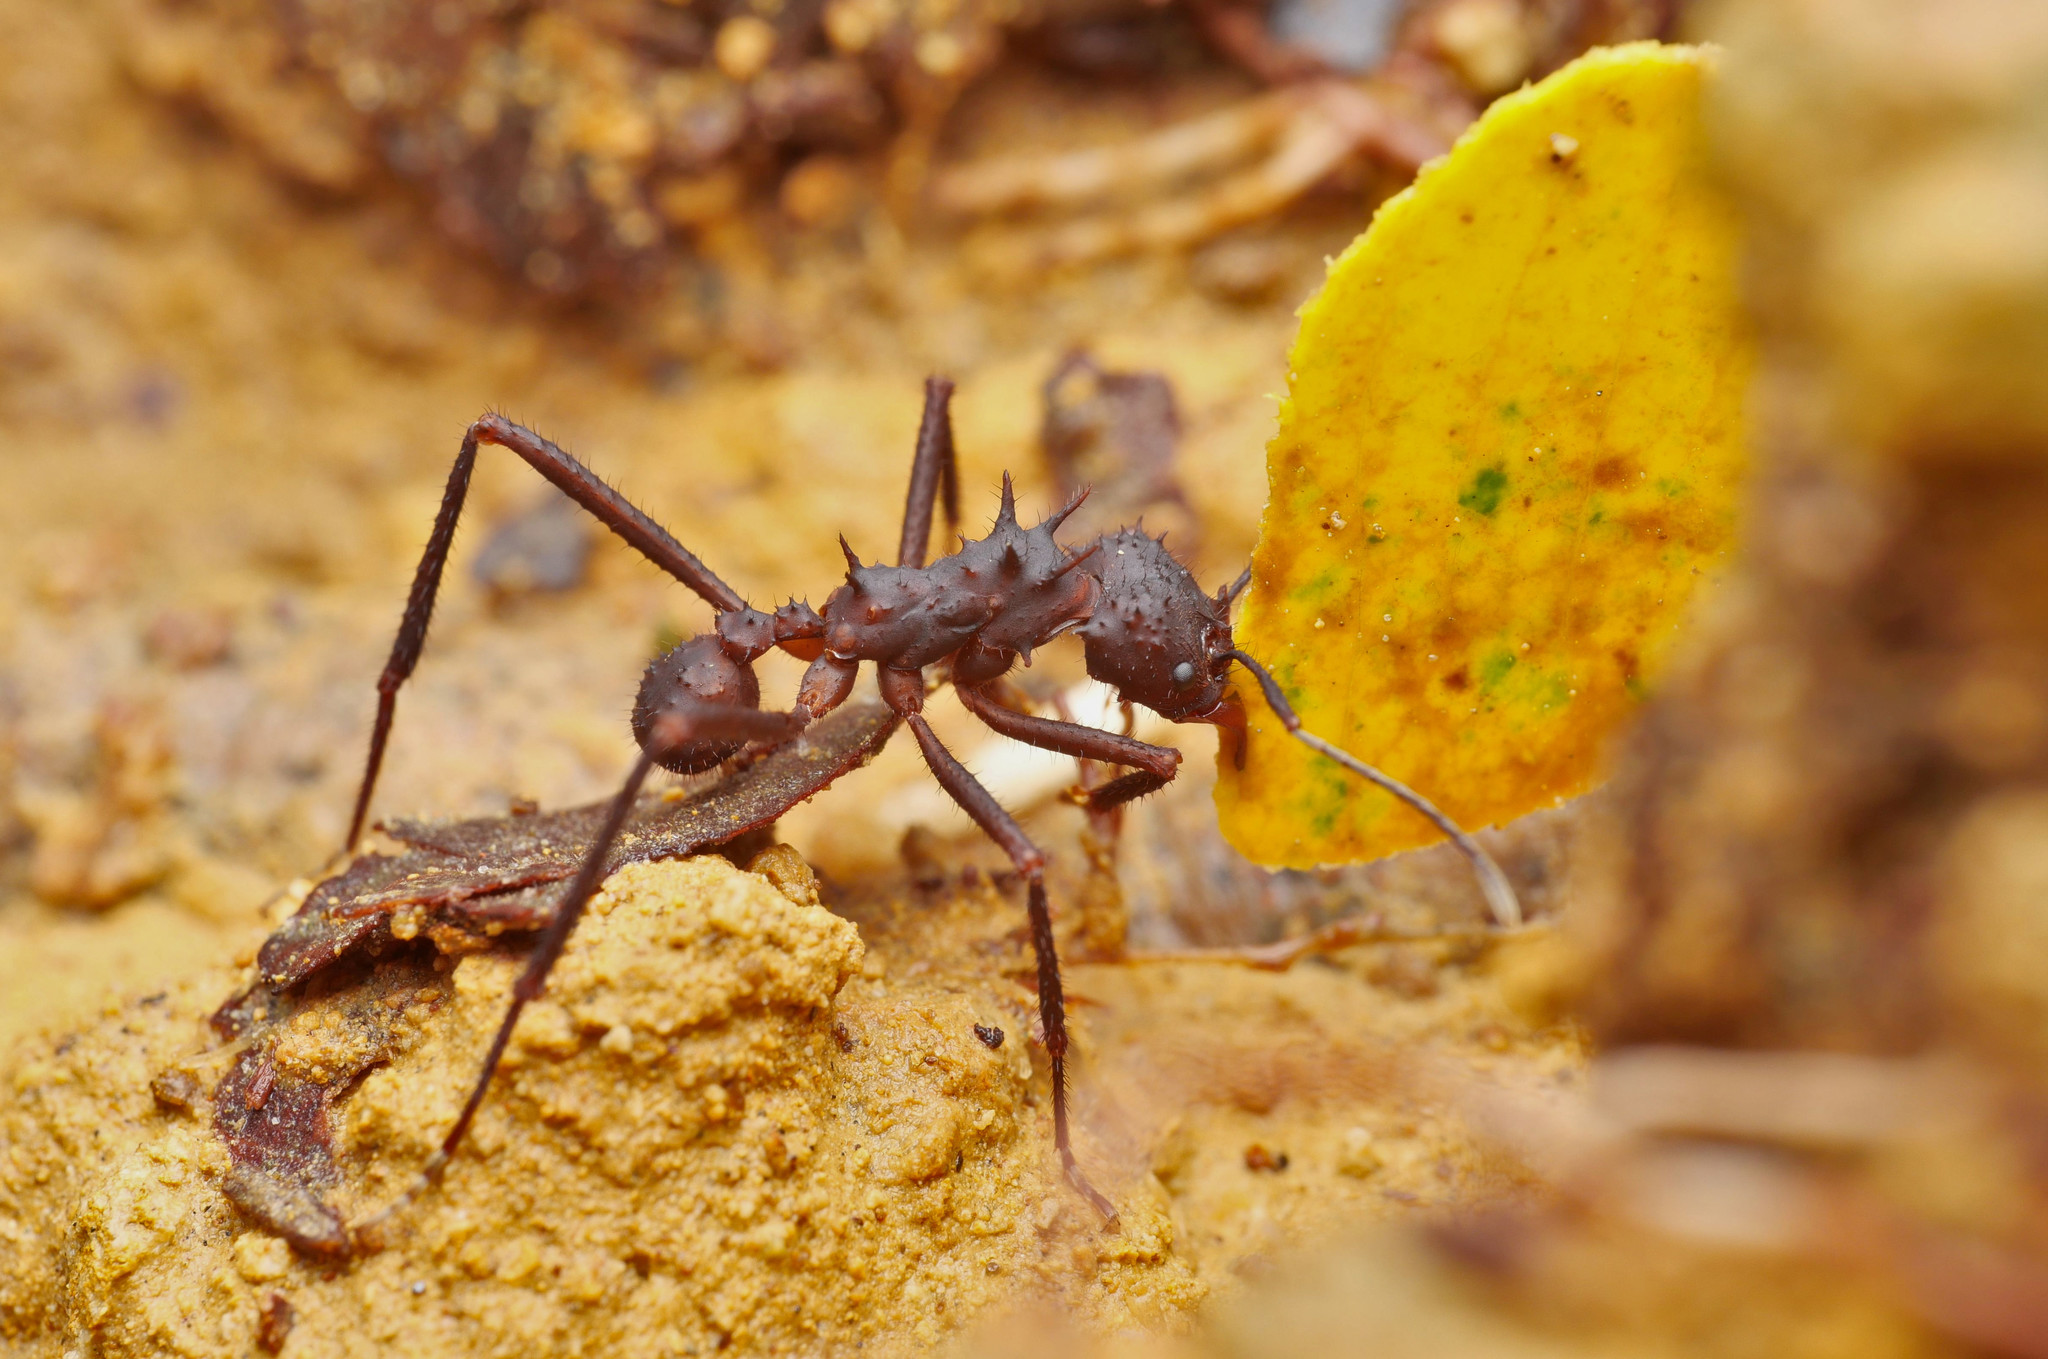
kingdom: Animalia
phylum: Arthropoda
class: Insecta
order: Hymenoptera
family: Formicidae
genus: Acromyrmex
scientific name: Acromyrmex volcanus
